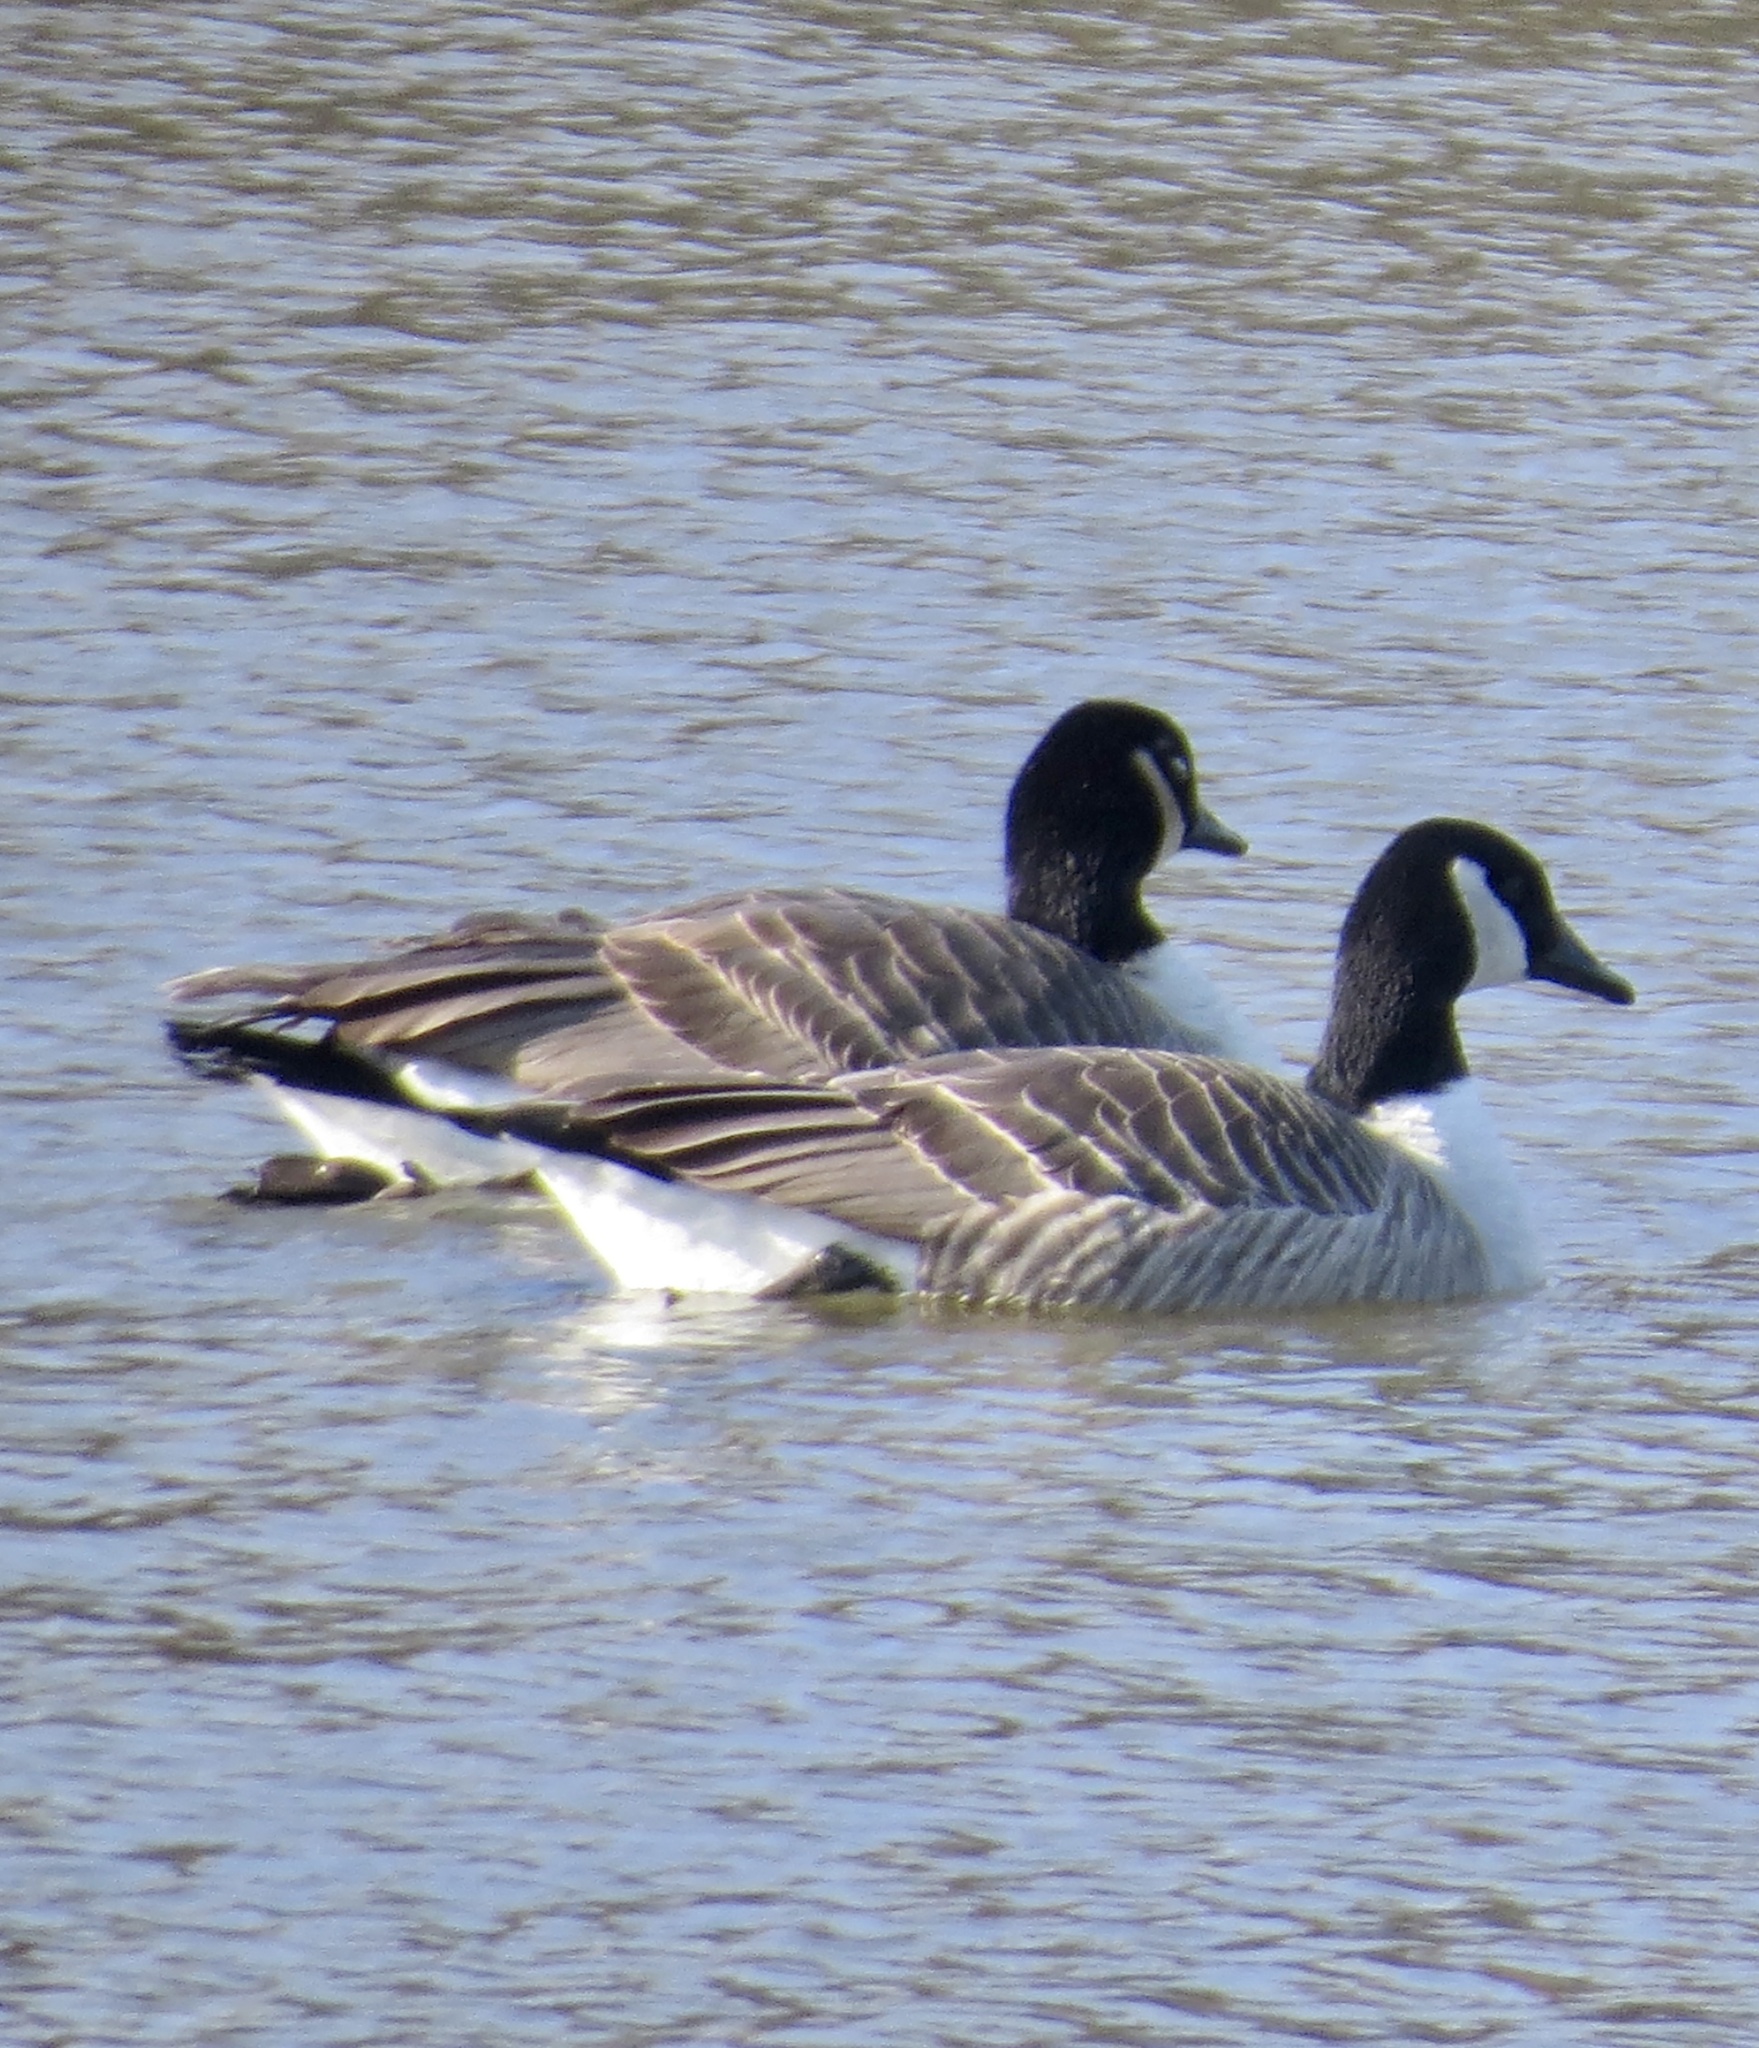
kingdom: Animalia
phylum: Chordata
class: Aves
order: Anseriformes
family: Anatidae
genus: Branta
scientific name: Branta canadensis
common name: Canada goose
